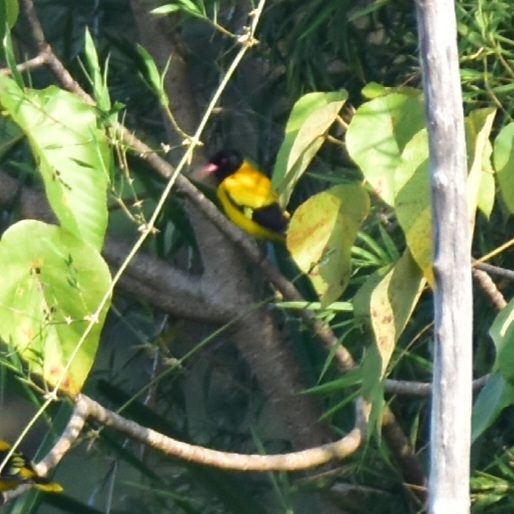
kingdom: Animalia
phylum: Chordata
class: Aves
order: Passeriformes
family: Oriolidae
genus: Oriolus
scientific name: Oriolus xanthornus
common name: Black-hooded oriole
